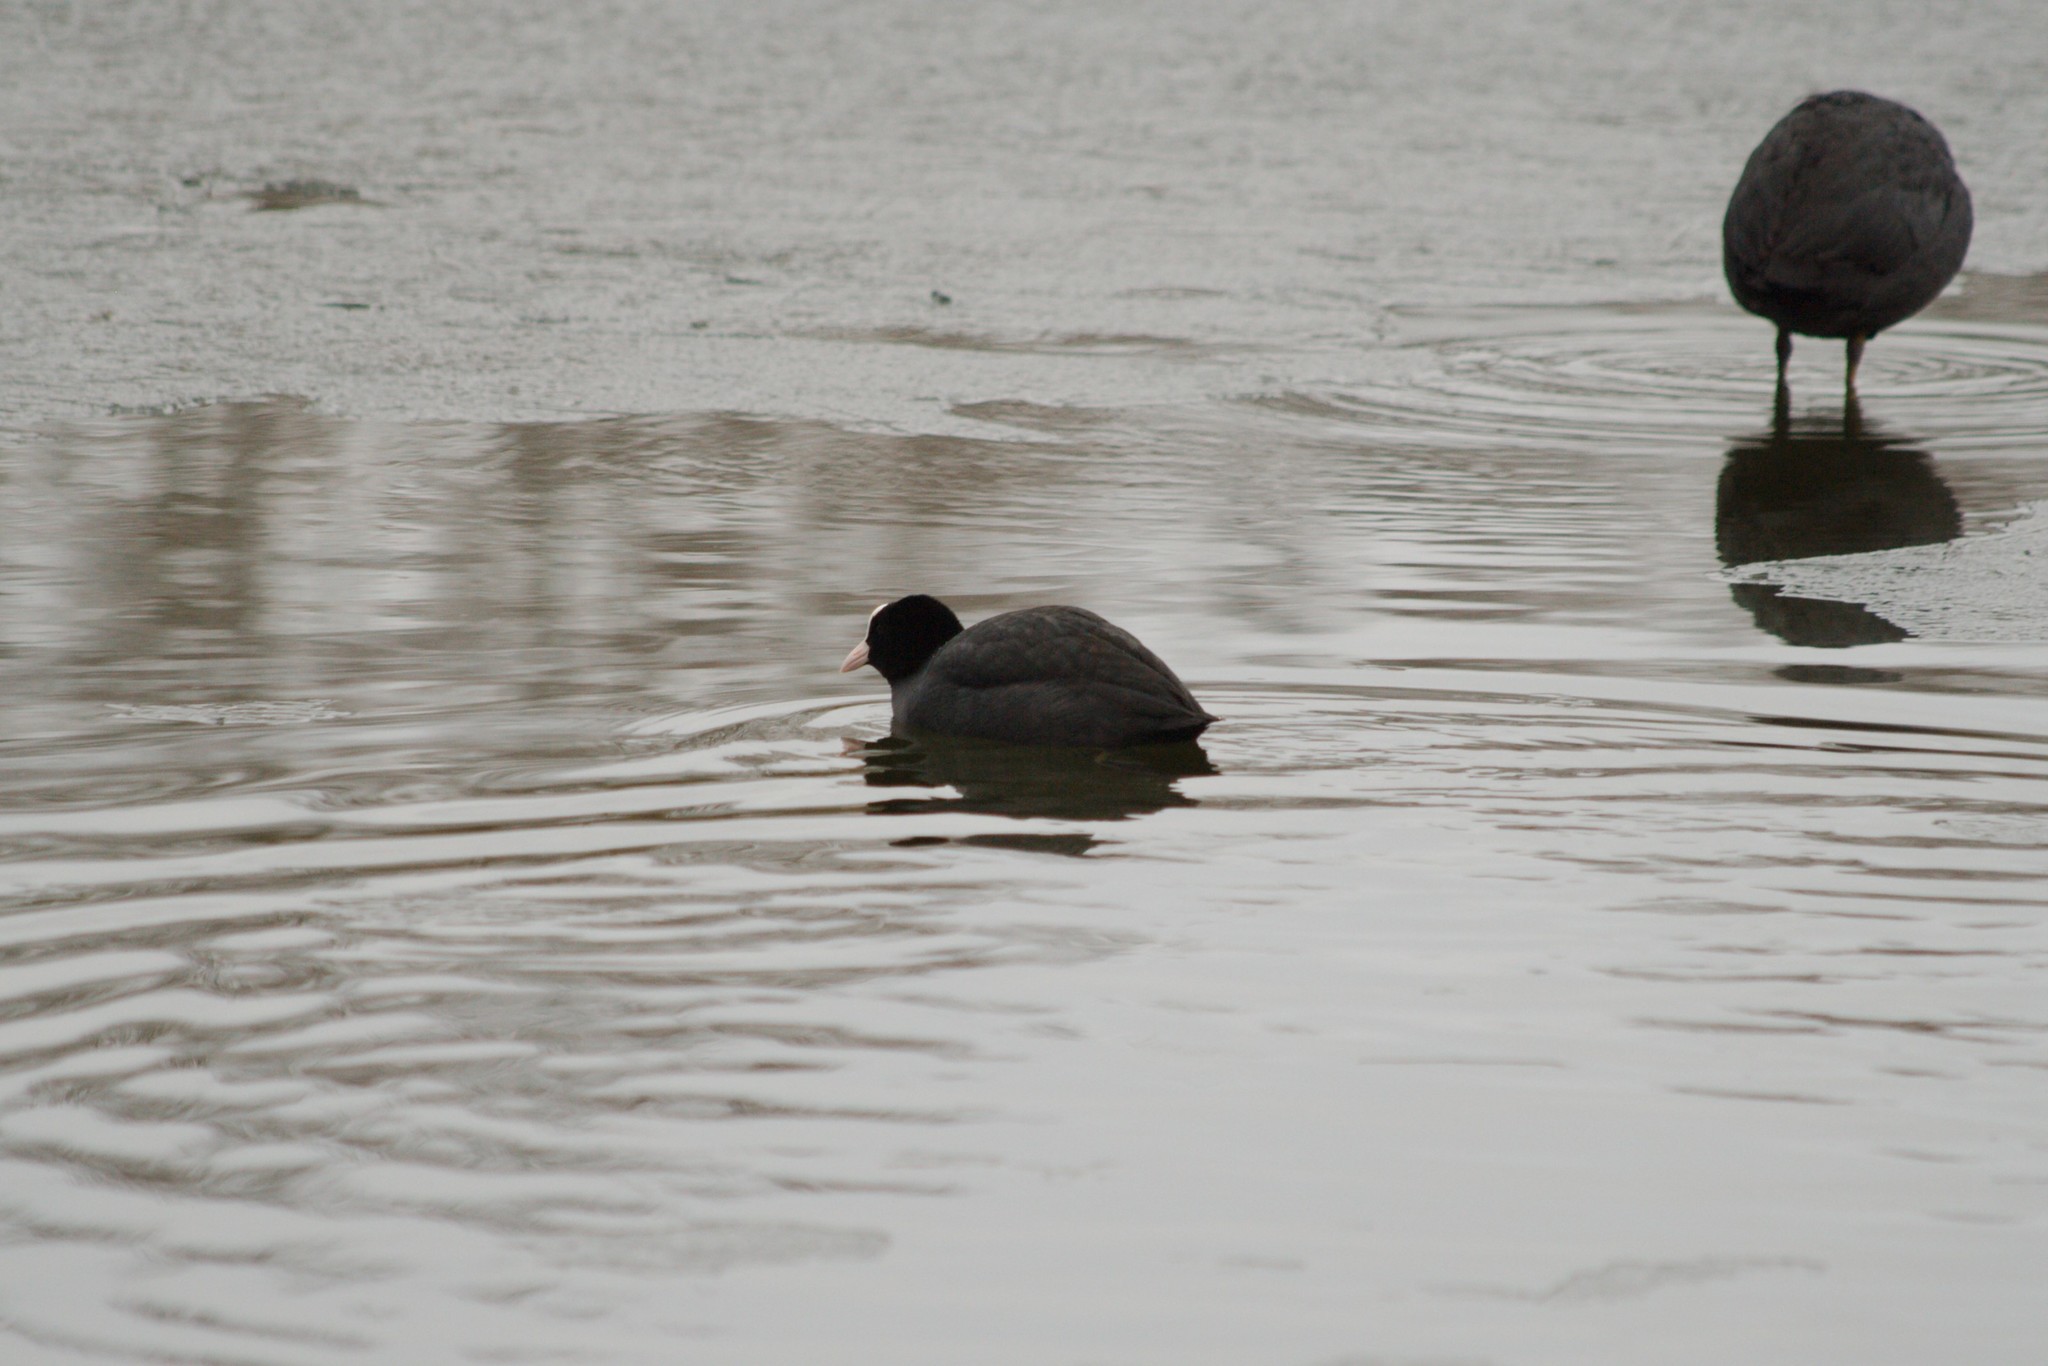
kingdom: Animalia
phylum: Chordata
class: Aves
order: Gruiformes
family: Rallidae
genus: Fulica
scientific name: Fulica atra
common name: Eurasian coot
